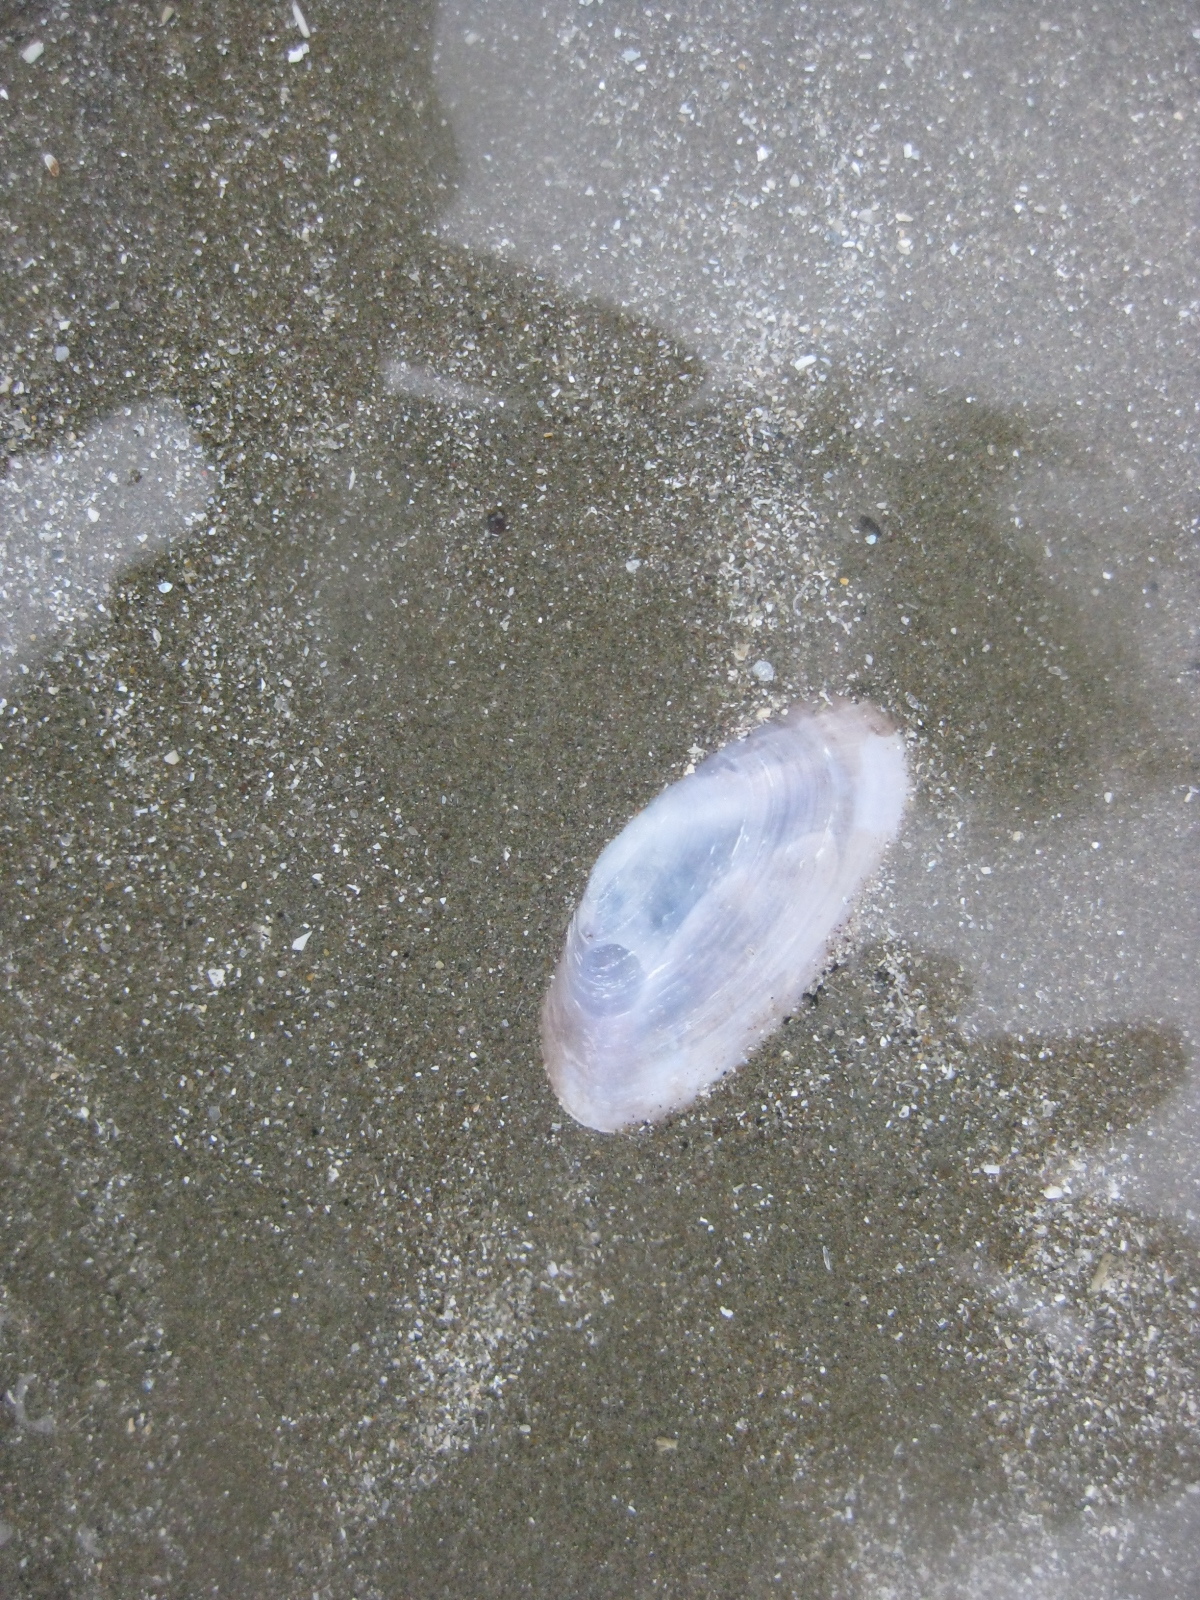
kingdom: Animalia
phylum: Mollusca
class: Bivalvia
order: Cardiida
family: Psammobiidae
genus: Hiatula
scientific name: Hiatula nitida
